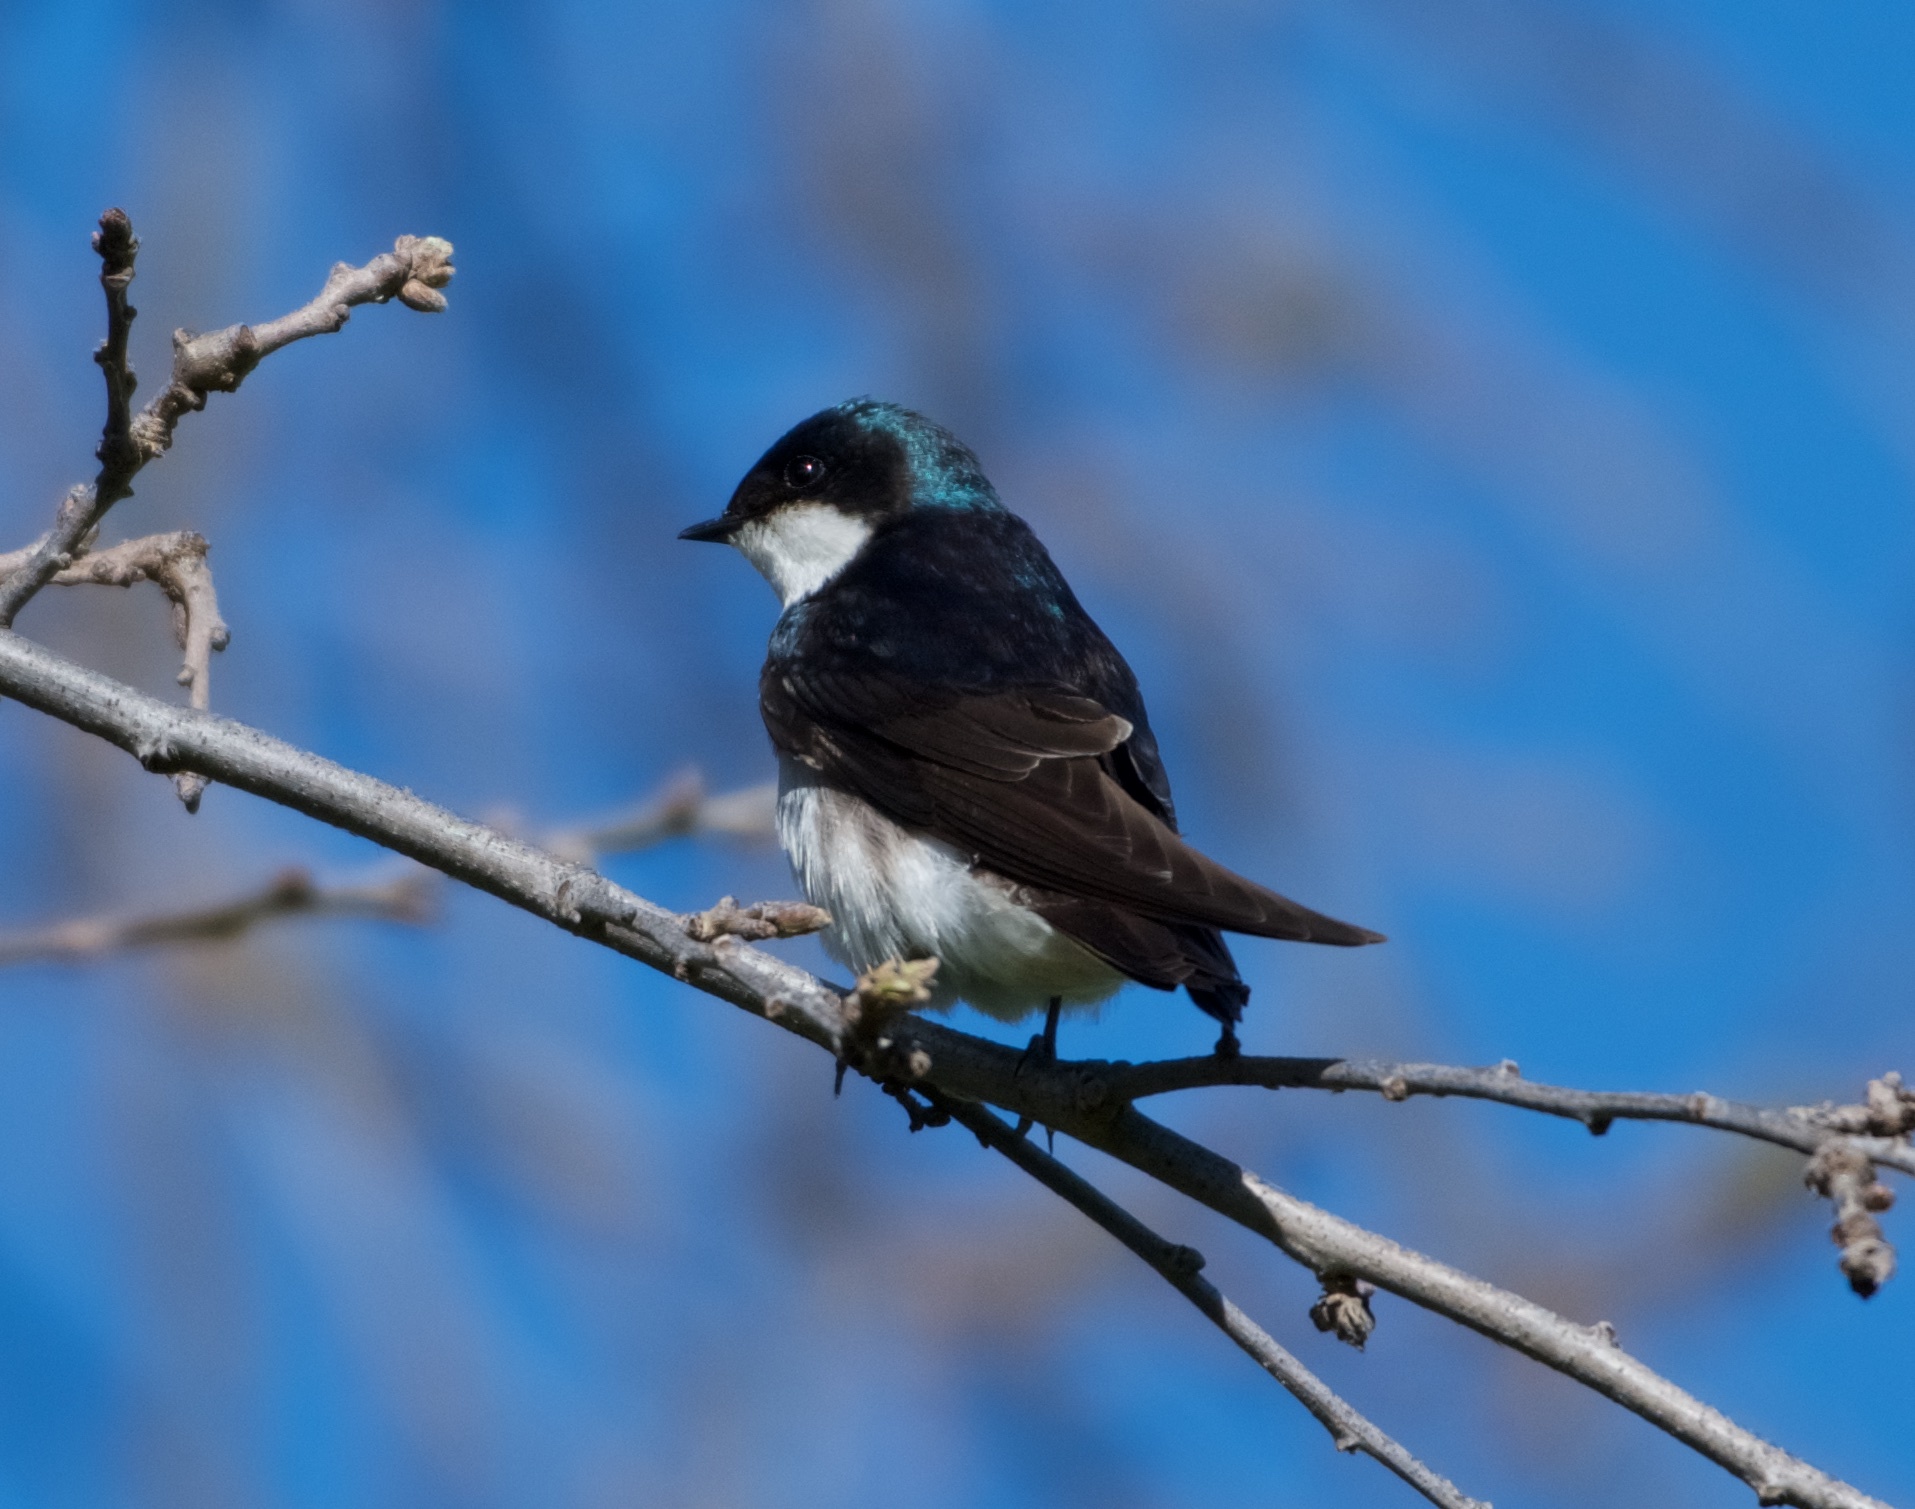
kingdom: Animalia
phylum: Chordata
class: Aves
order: Passeriformes
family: Hirundinidae
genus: Tachycineta
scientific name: Tachycineta bicolor
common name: Tree swallow
